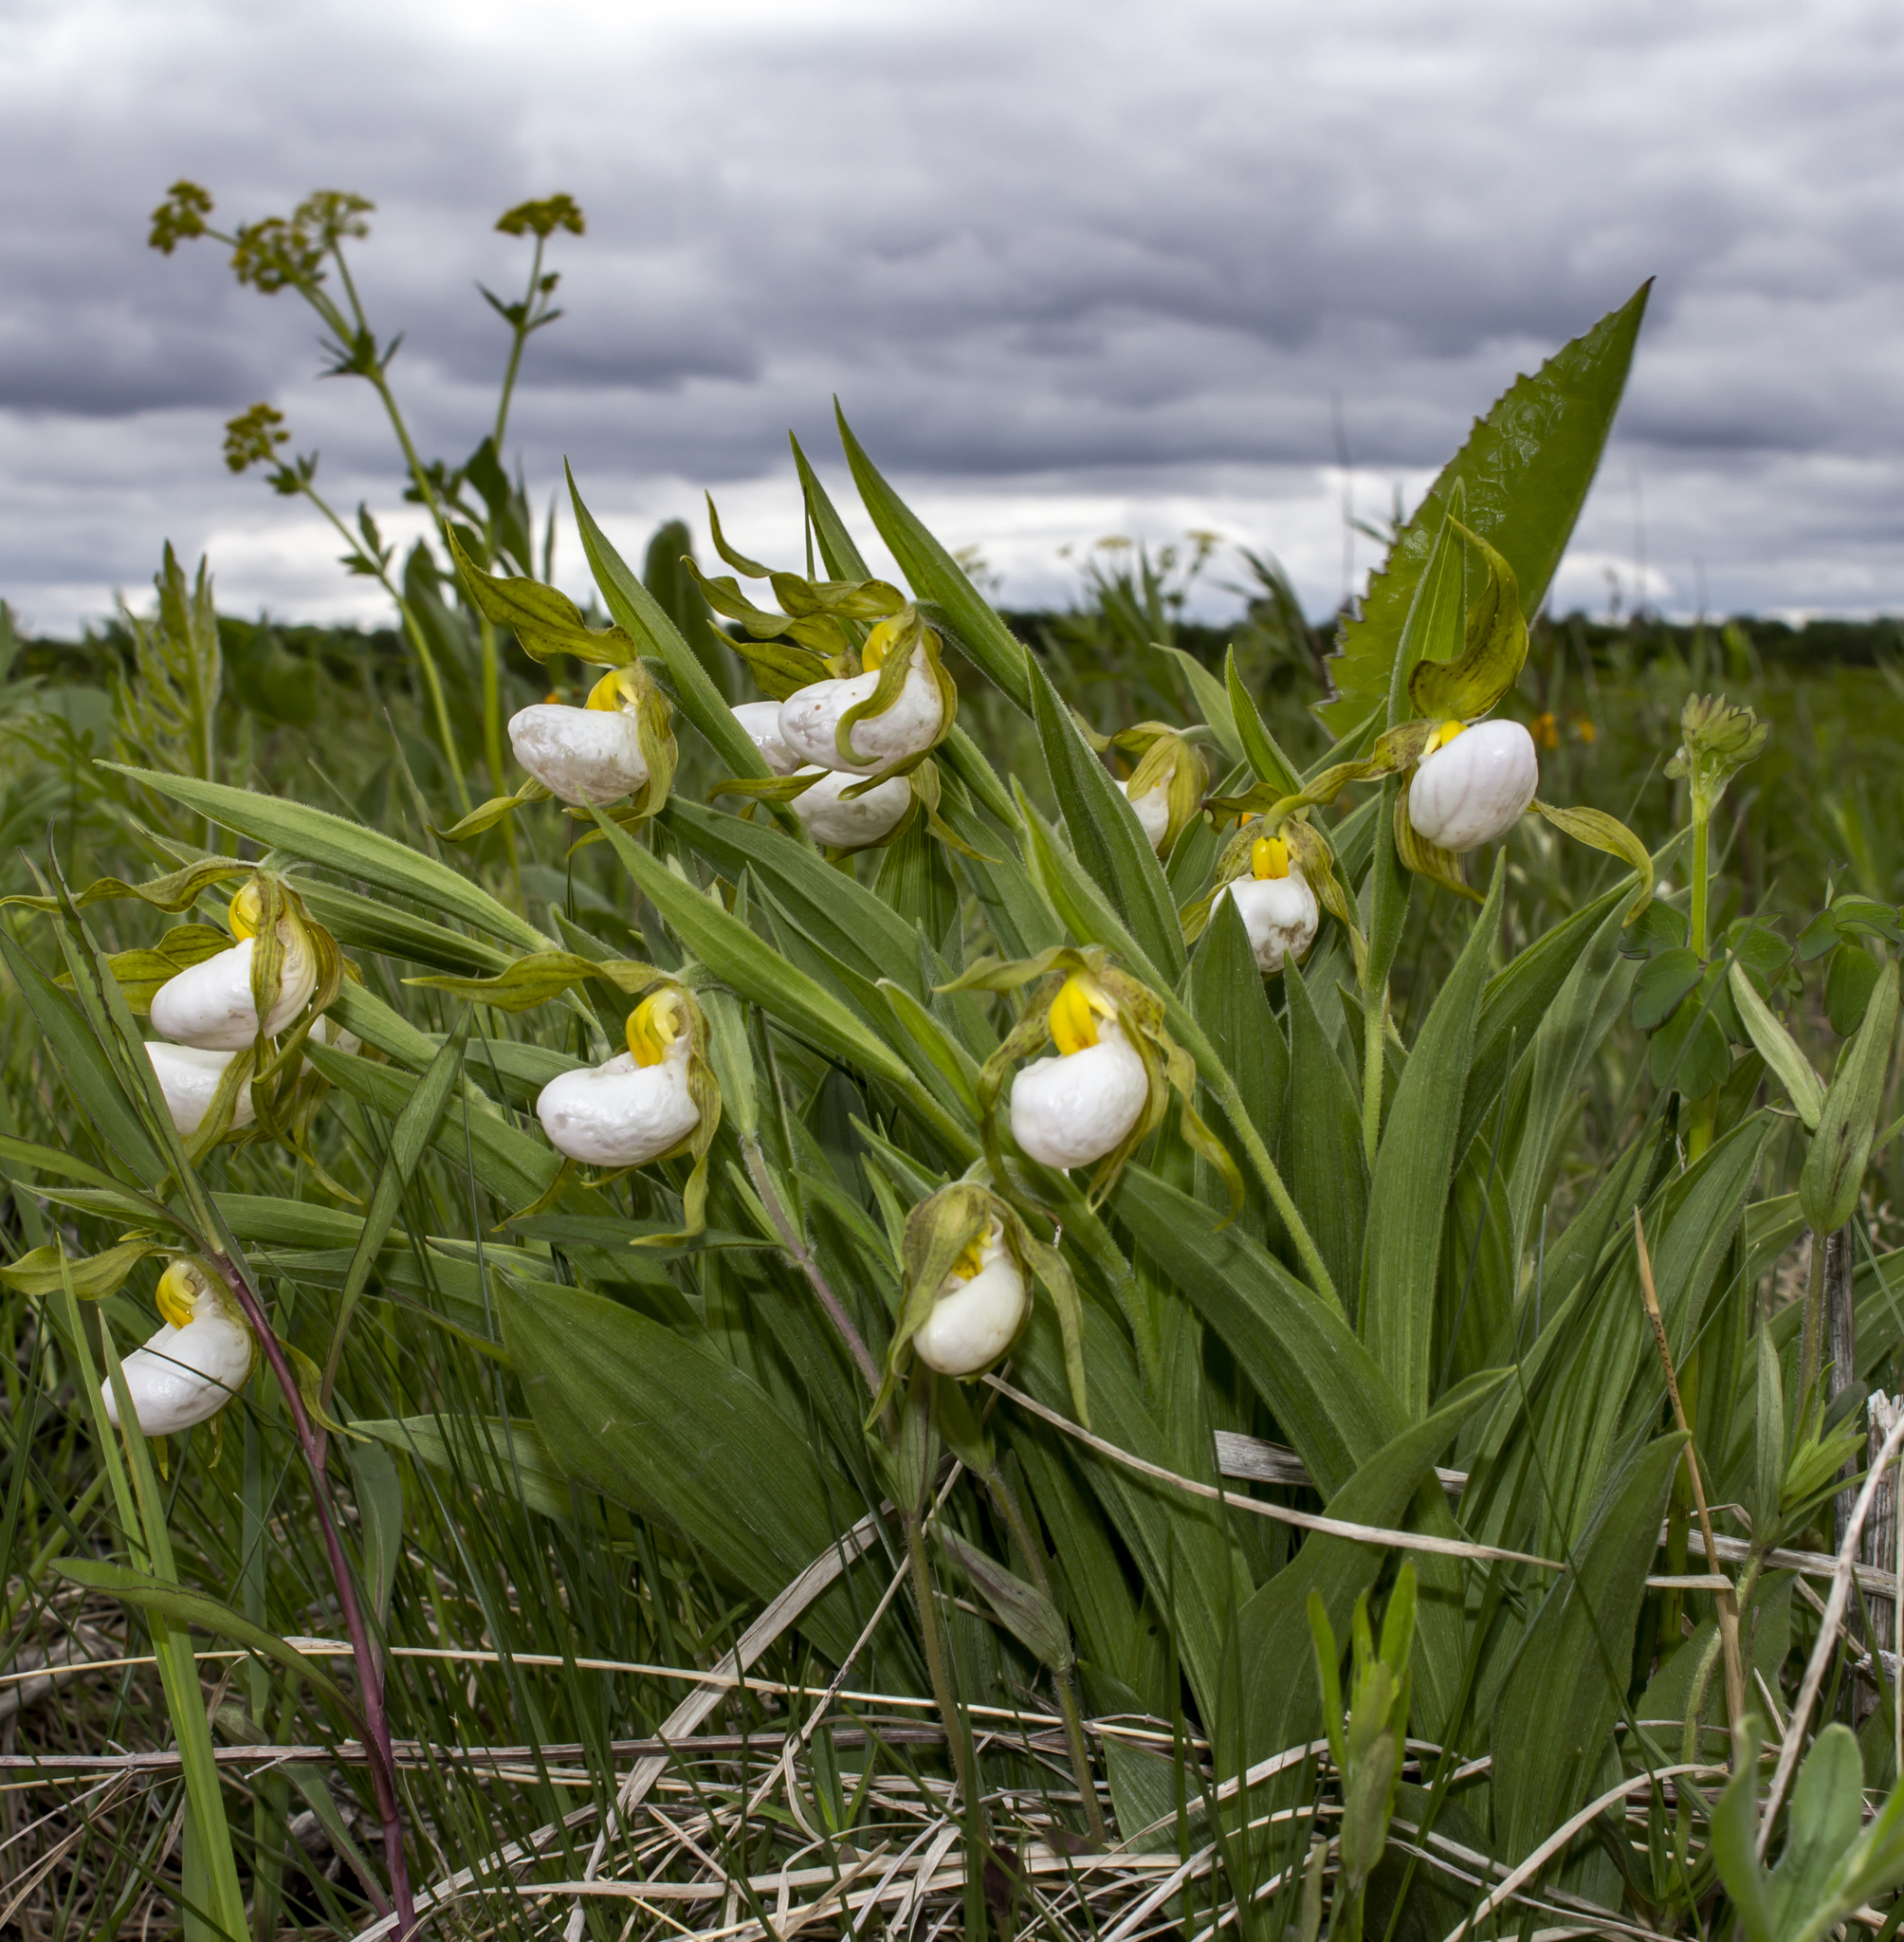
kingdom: Plantae
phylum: Tracheophyta
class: Liliopsida
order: Asparagales
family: Orchidaceae
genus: Cypripedium
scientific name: Cypripedium candidum
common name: White lady's-slipper
